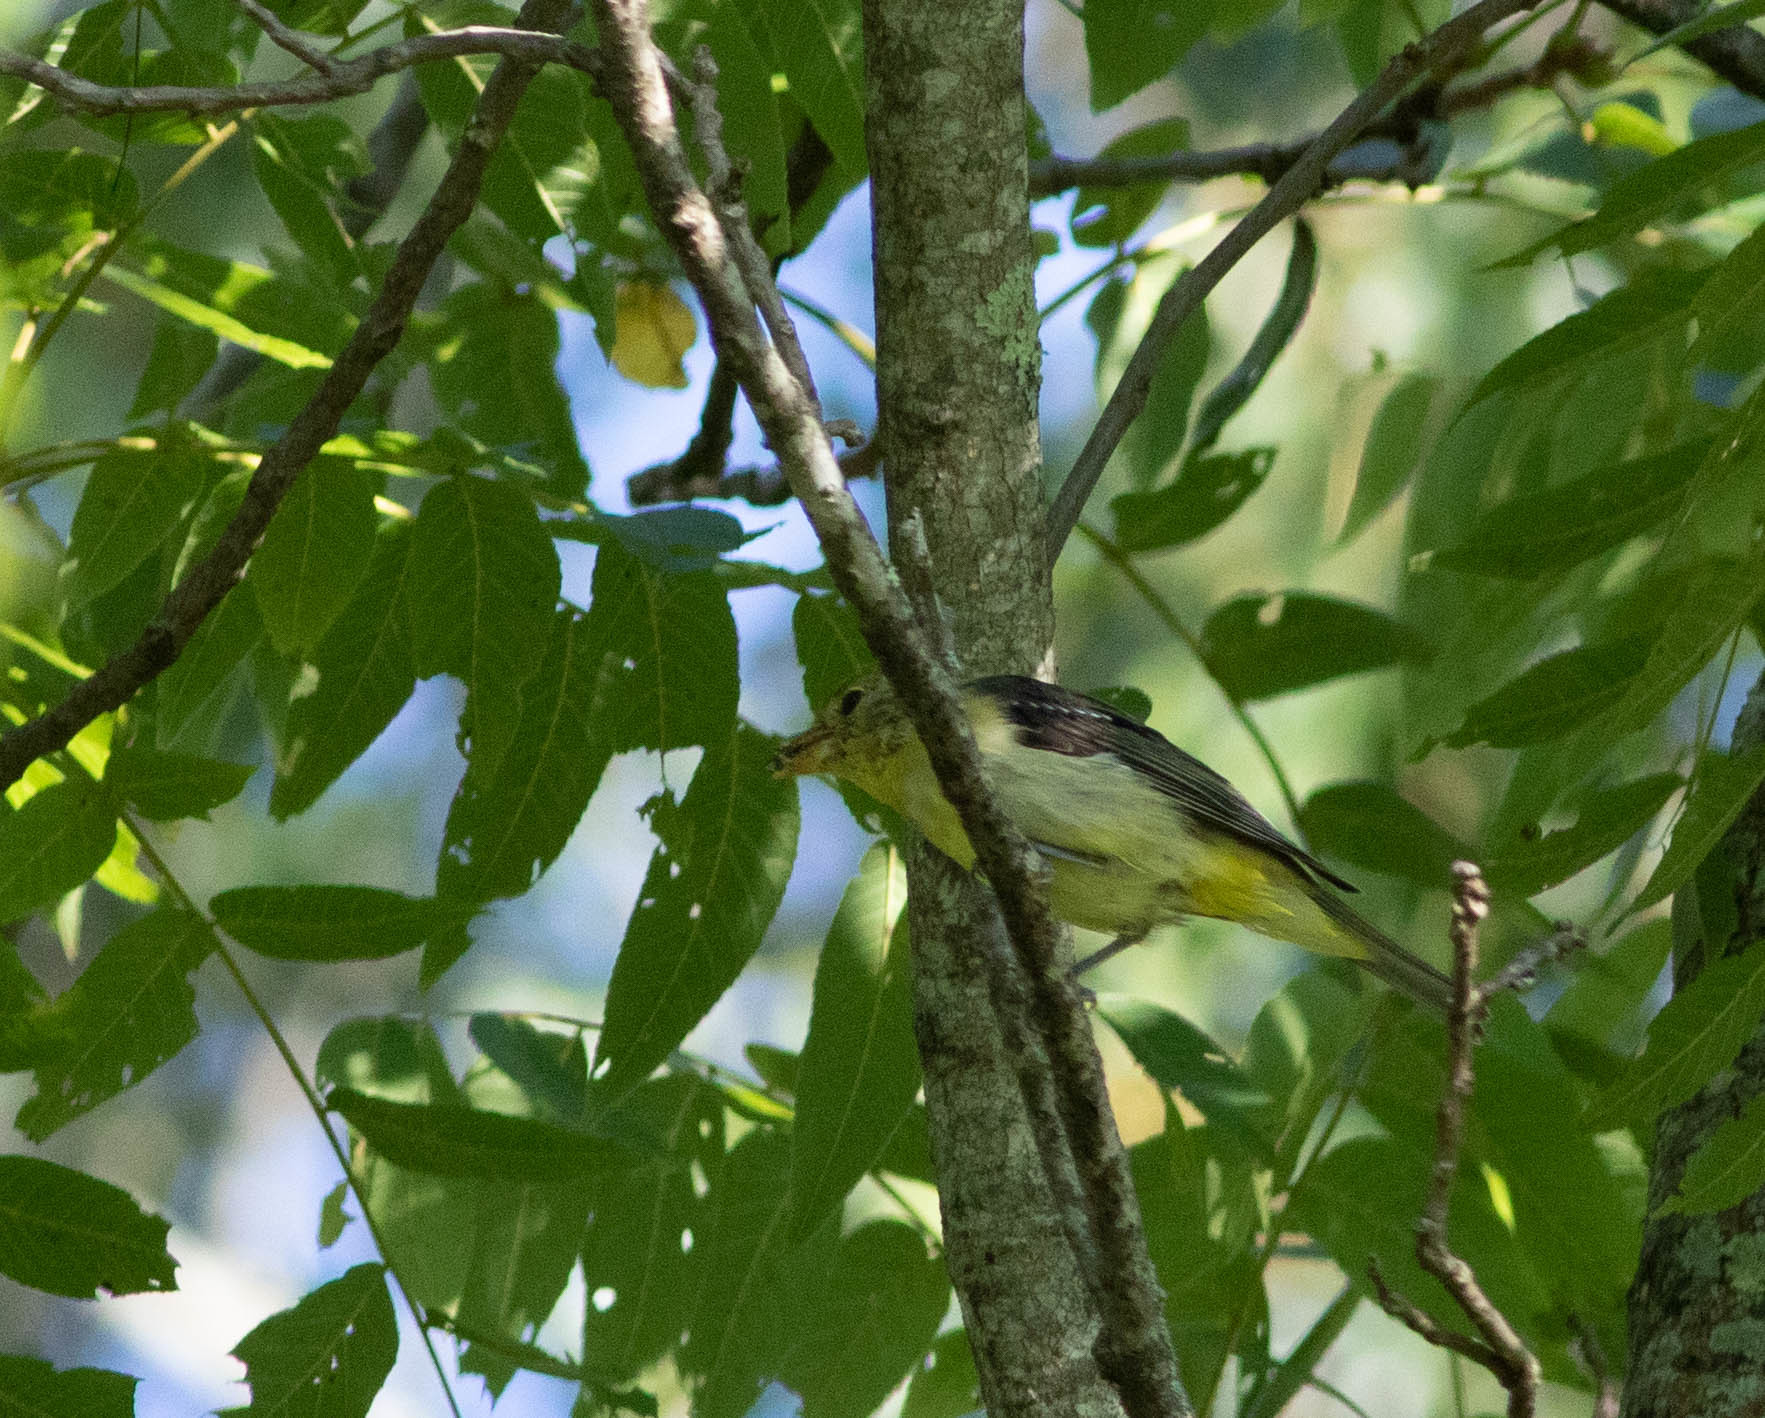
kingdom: Animalia
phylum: Chordata
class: Aves
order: Passeriformes
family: Cardinalidae
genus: Piranga
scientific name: Piranga olivacea
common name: Scarlet tanager
